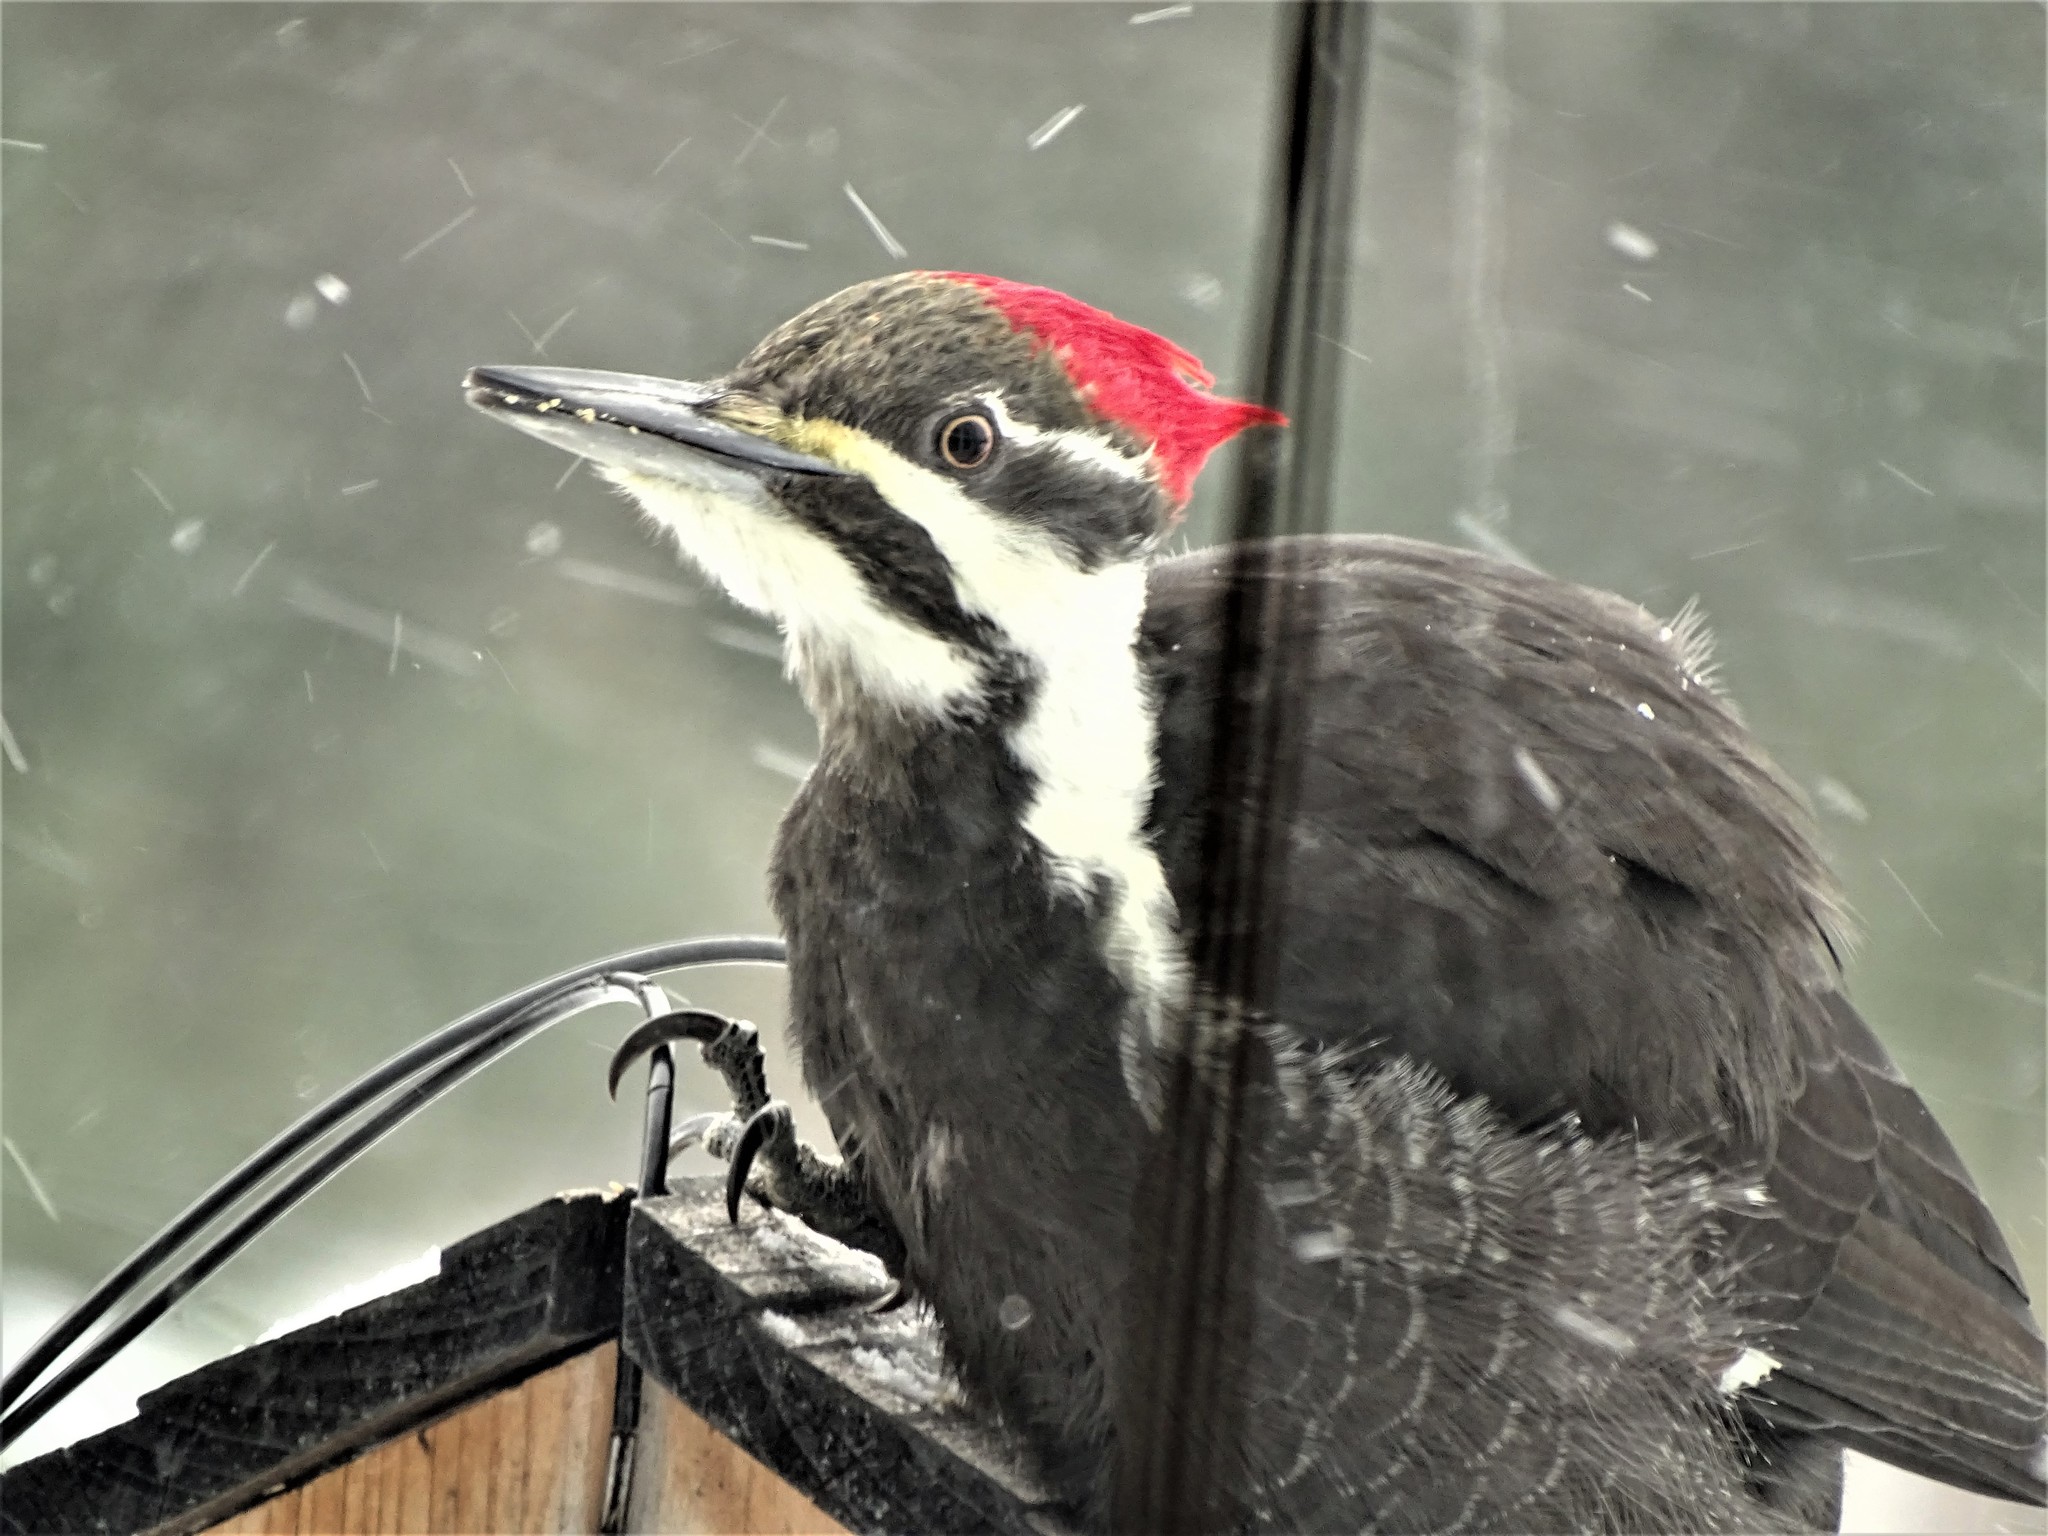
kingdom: Animalia
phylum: Chordata
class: Aves
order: Piciformes
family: Picidae
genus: Dryocopus
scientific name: Dryocopus pileatus
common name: Pileated woodpecker
